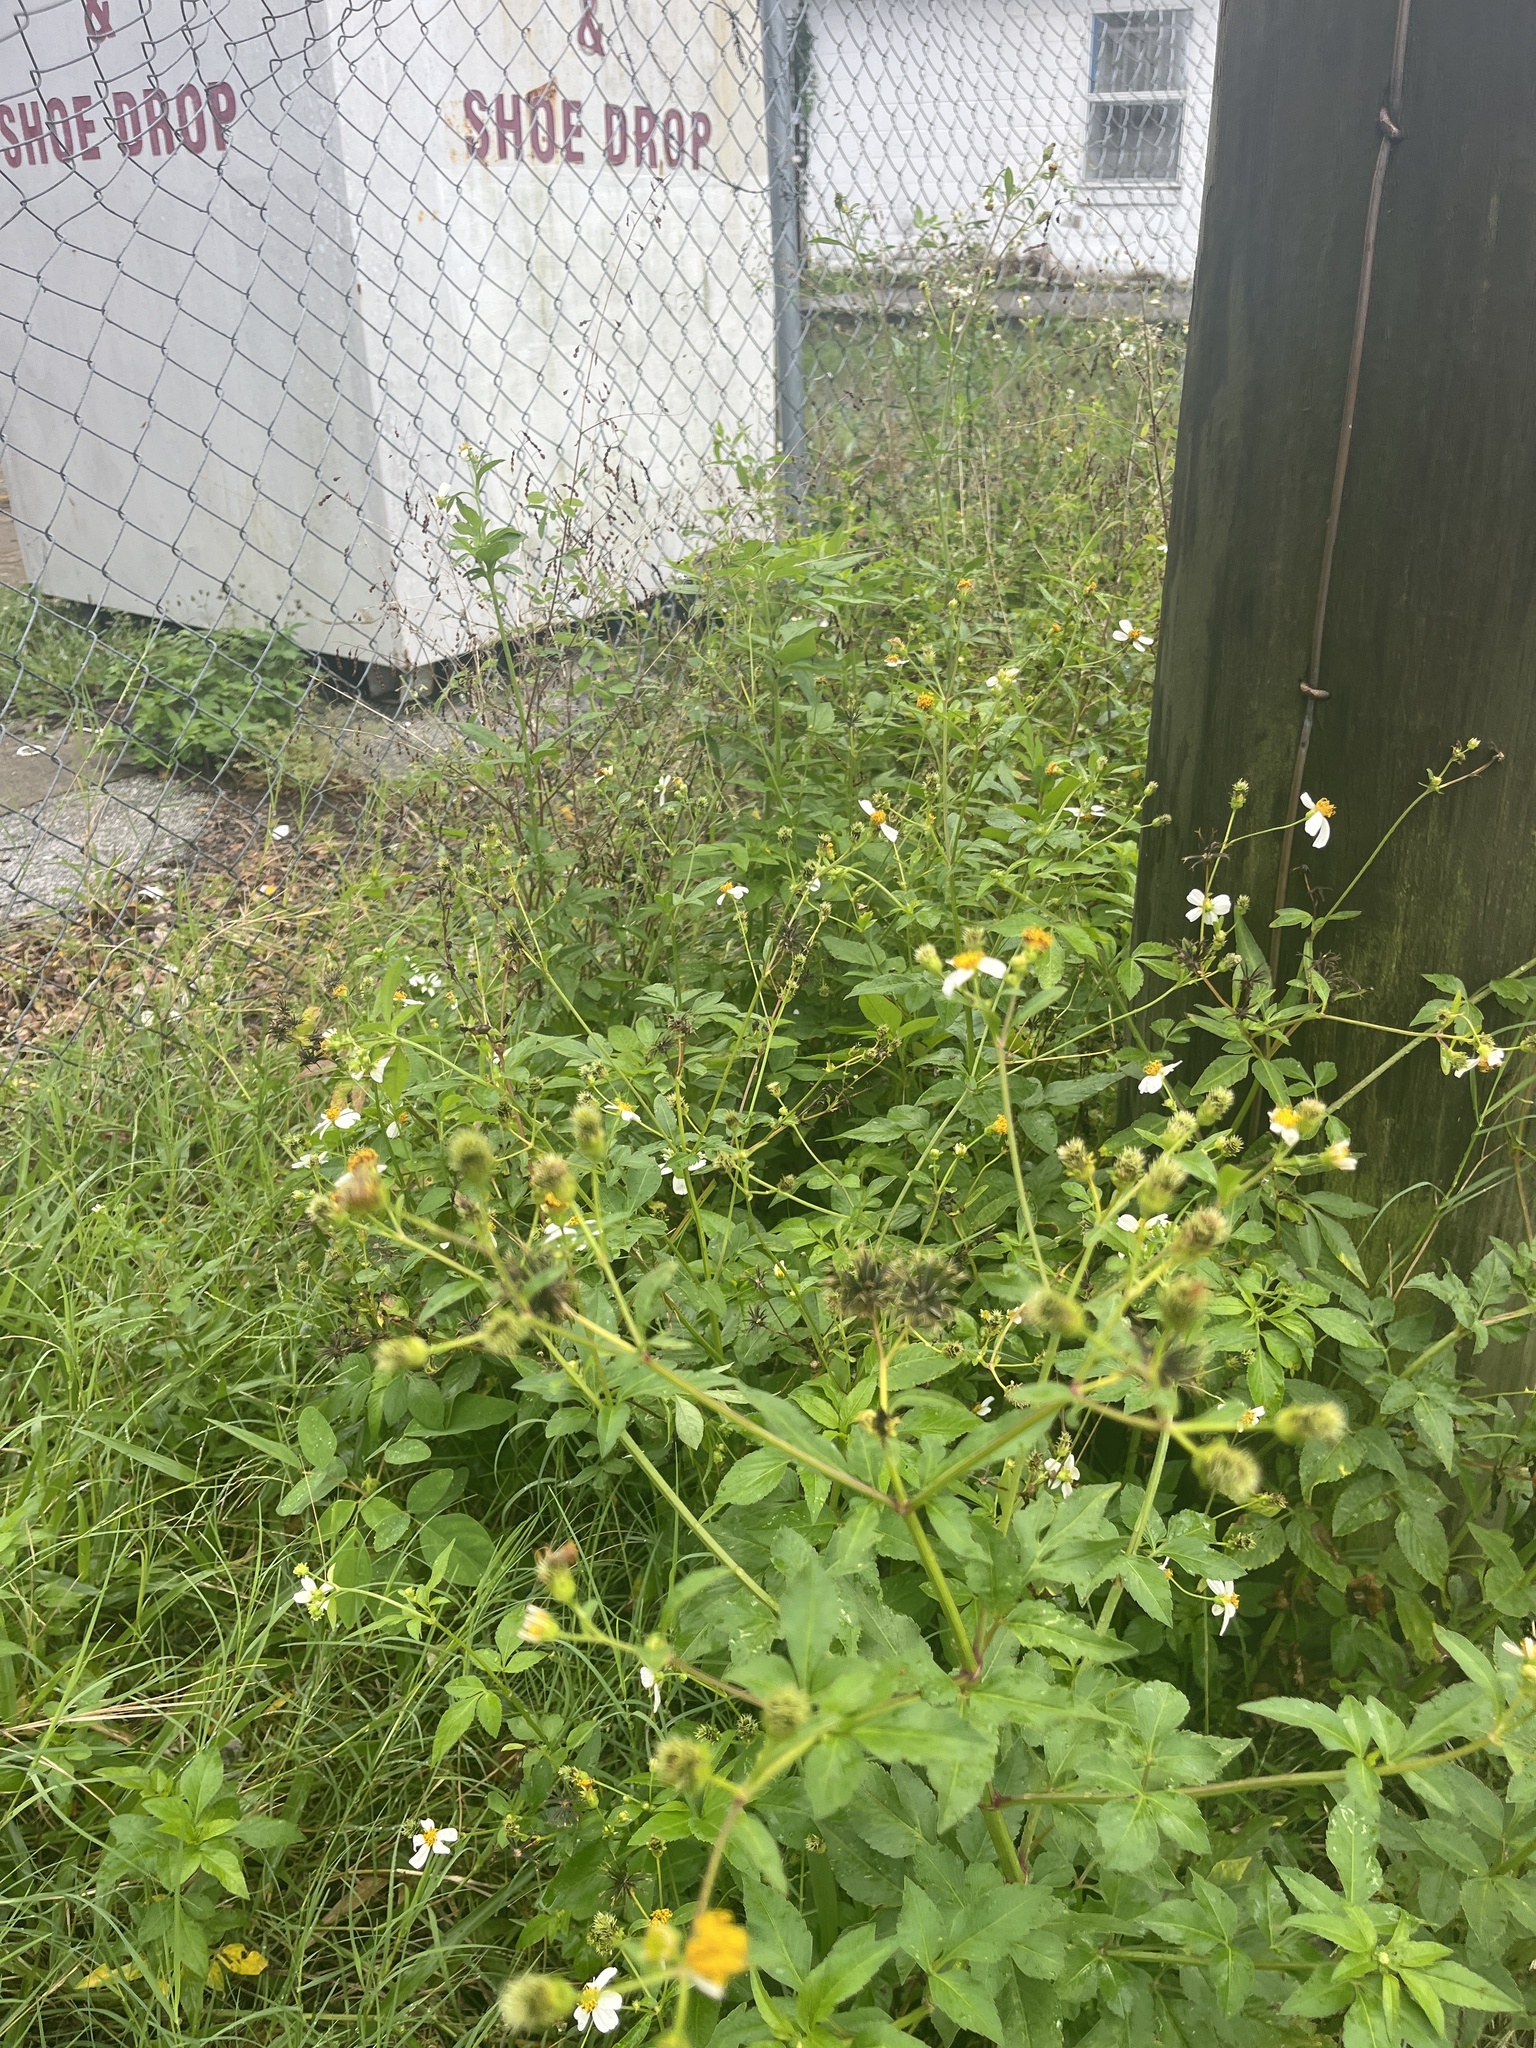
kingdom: Plantae
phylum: Tracheophyta
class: Magnoliopsida
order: Asterales
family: Asteraceae
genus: Bidens
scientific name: Bidens alba
